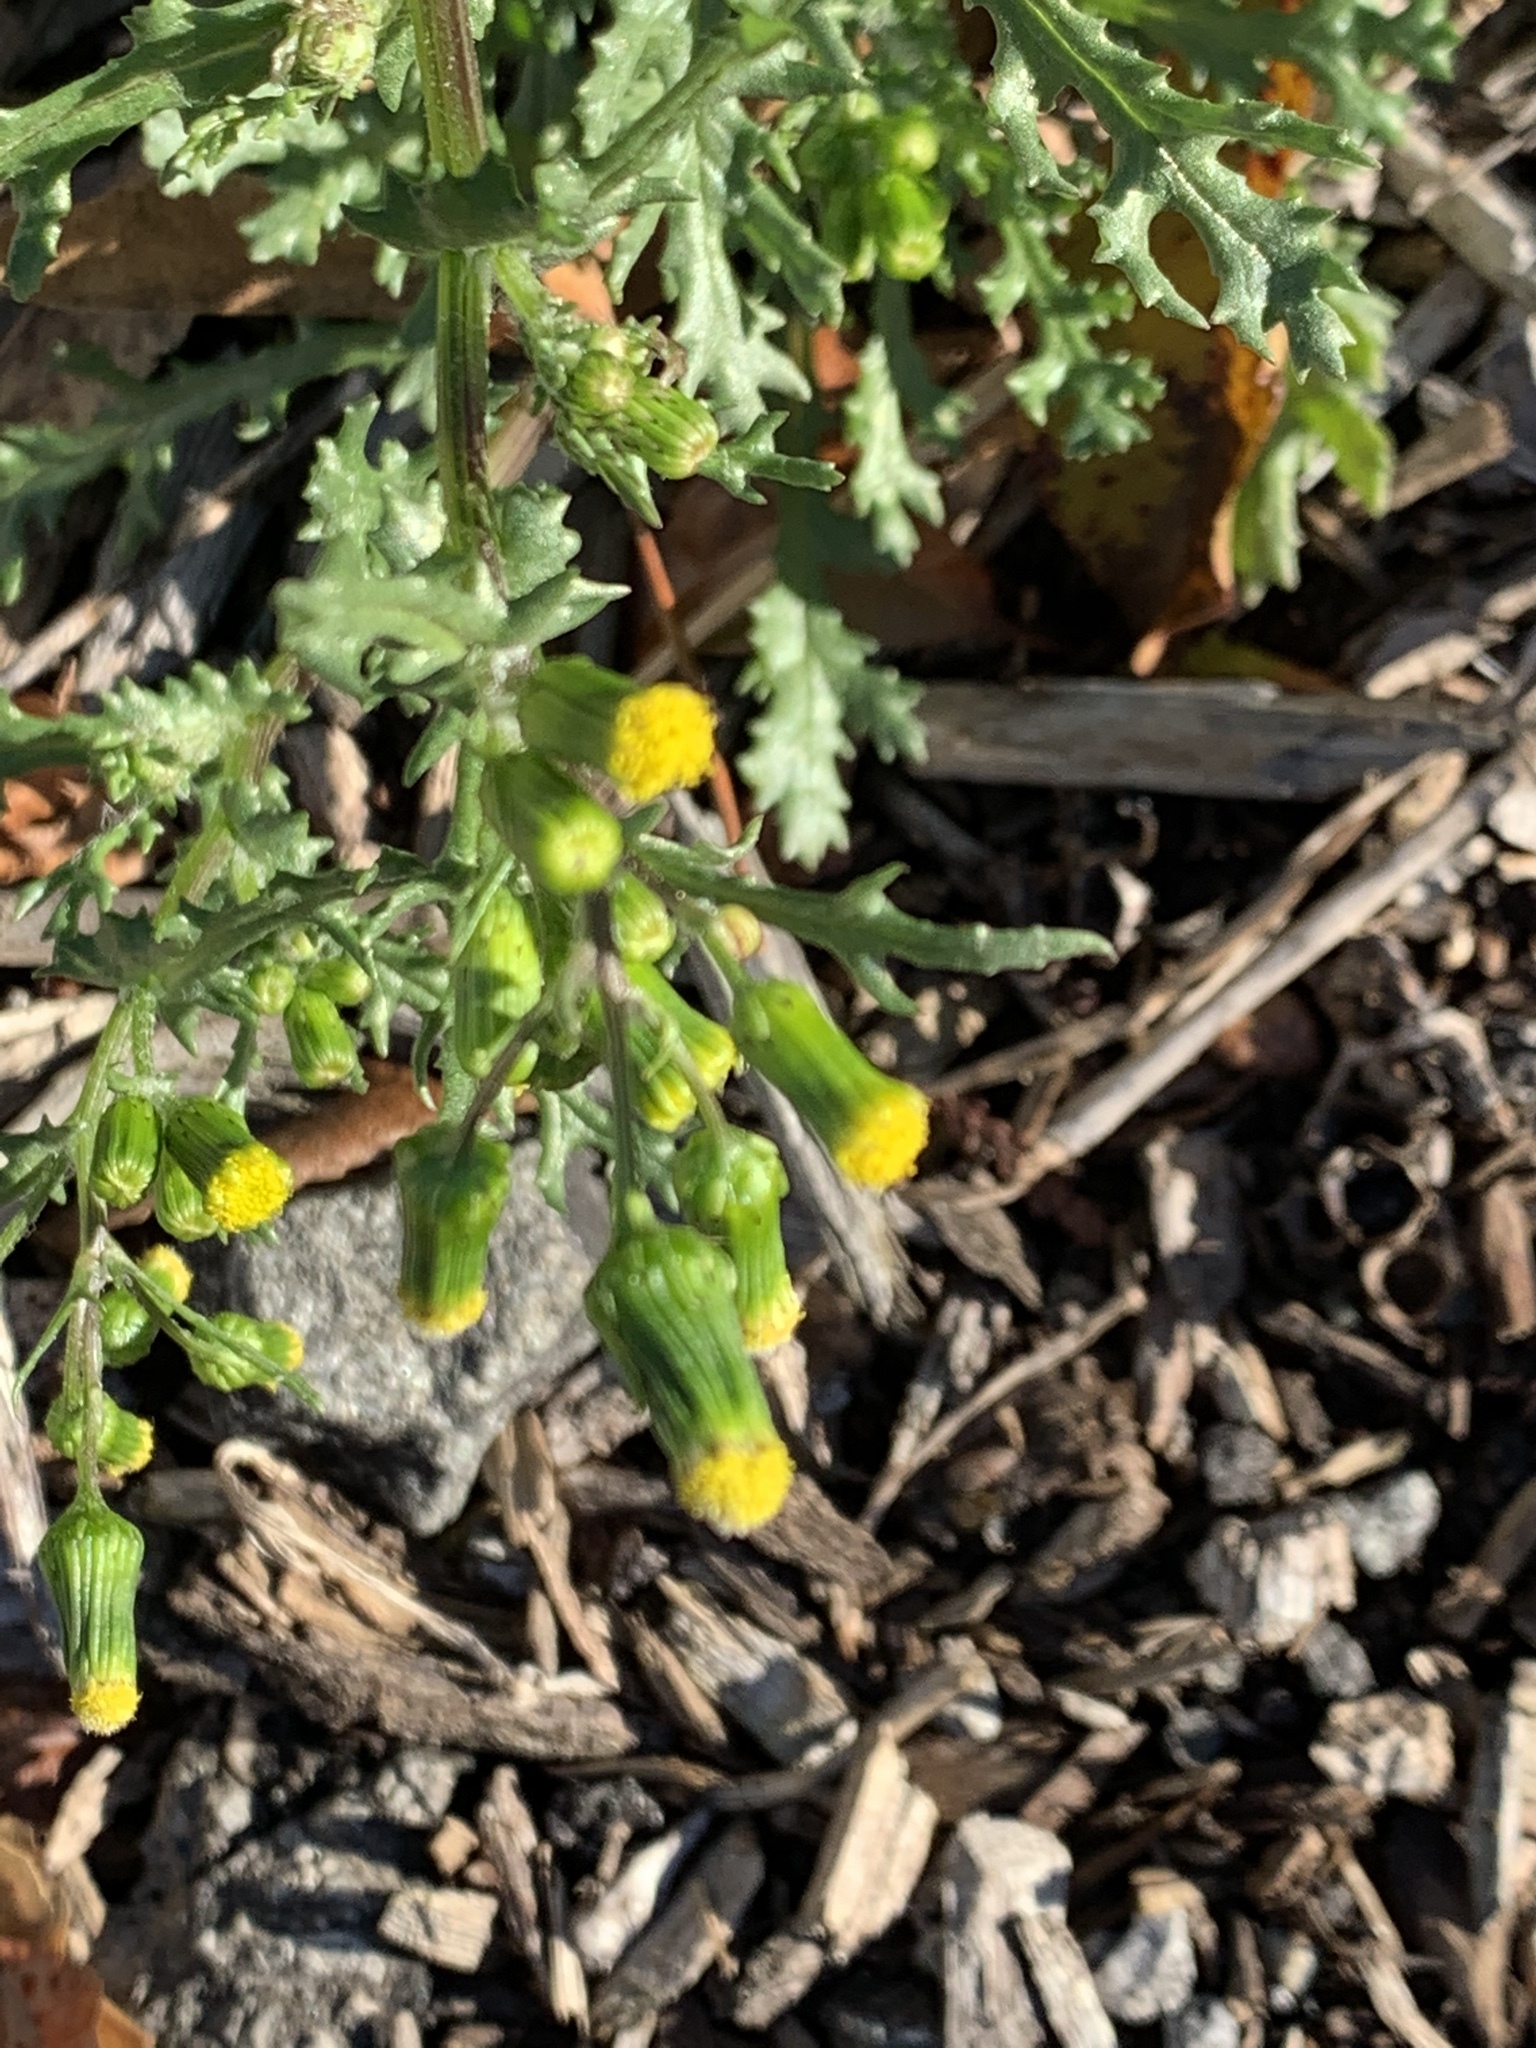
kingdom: Plantae
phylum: Tracheophyta
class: Magnoliopsida
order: Asterales
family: Asteraceae
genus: Senecio
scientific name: Senecio vulgaris
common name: Old-man-in-the-spring
